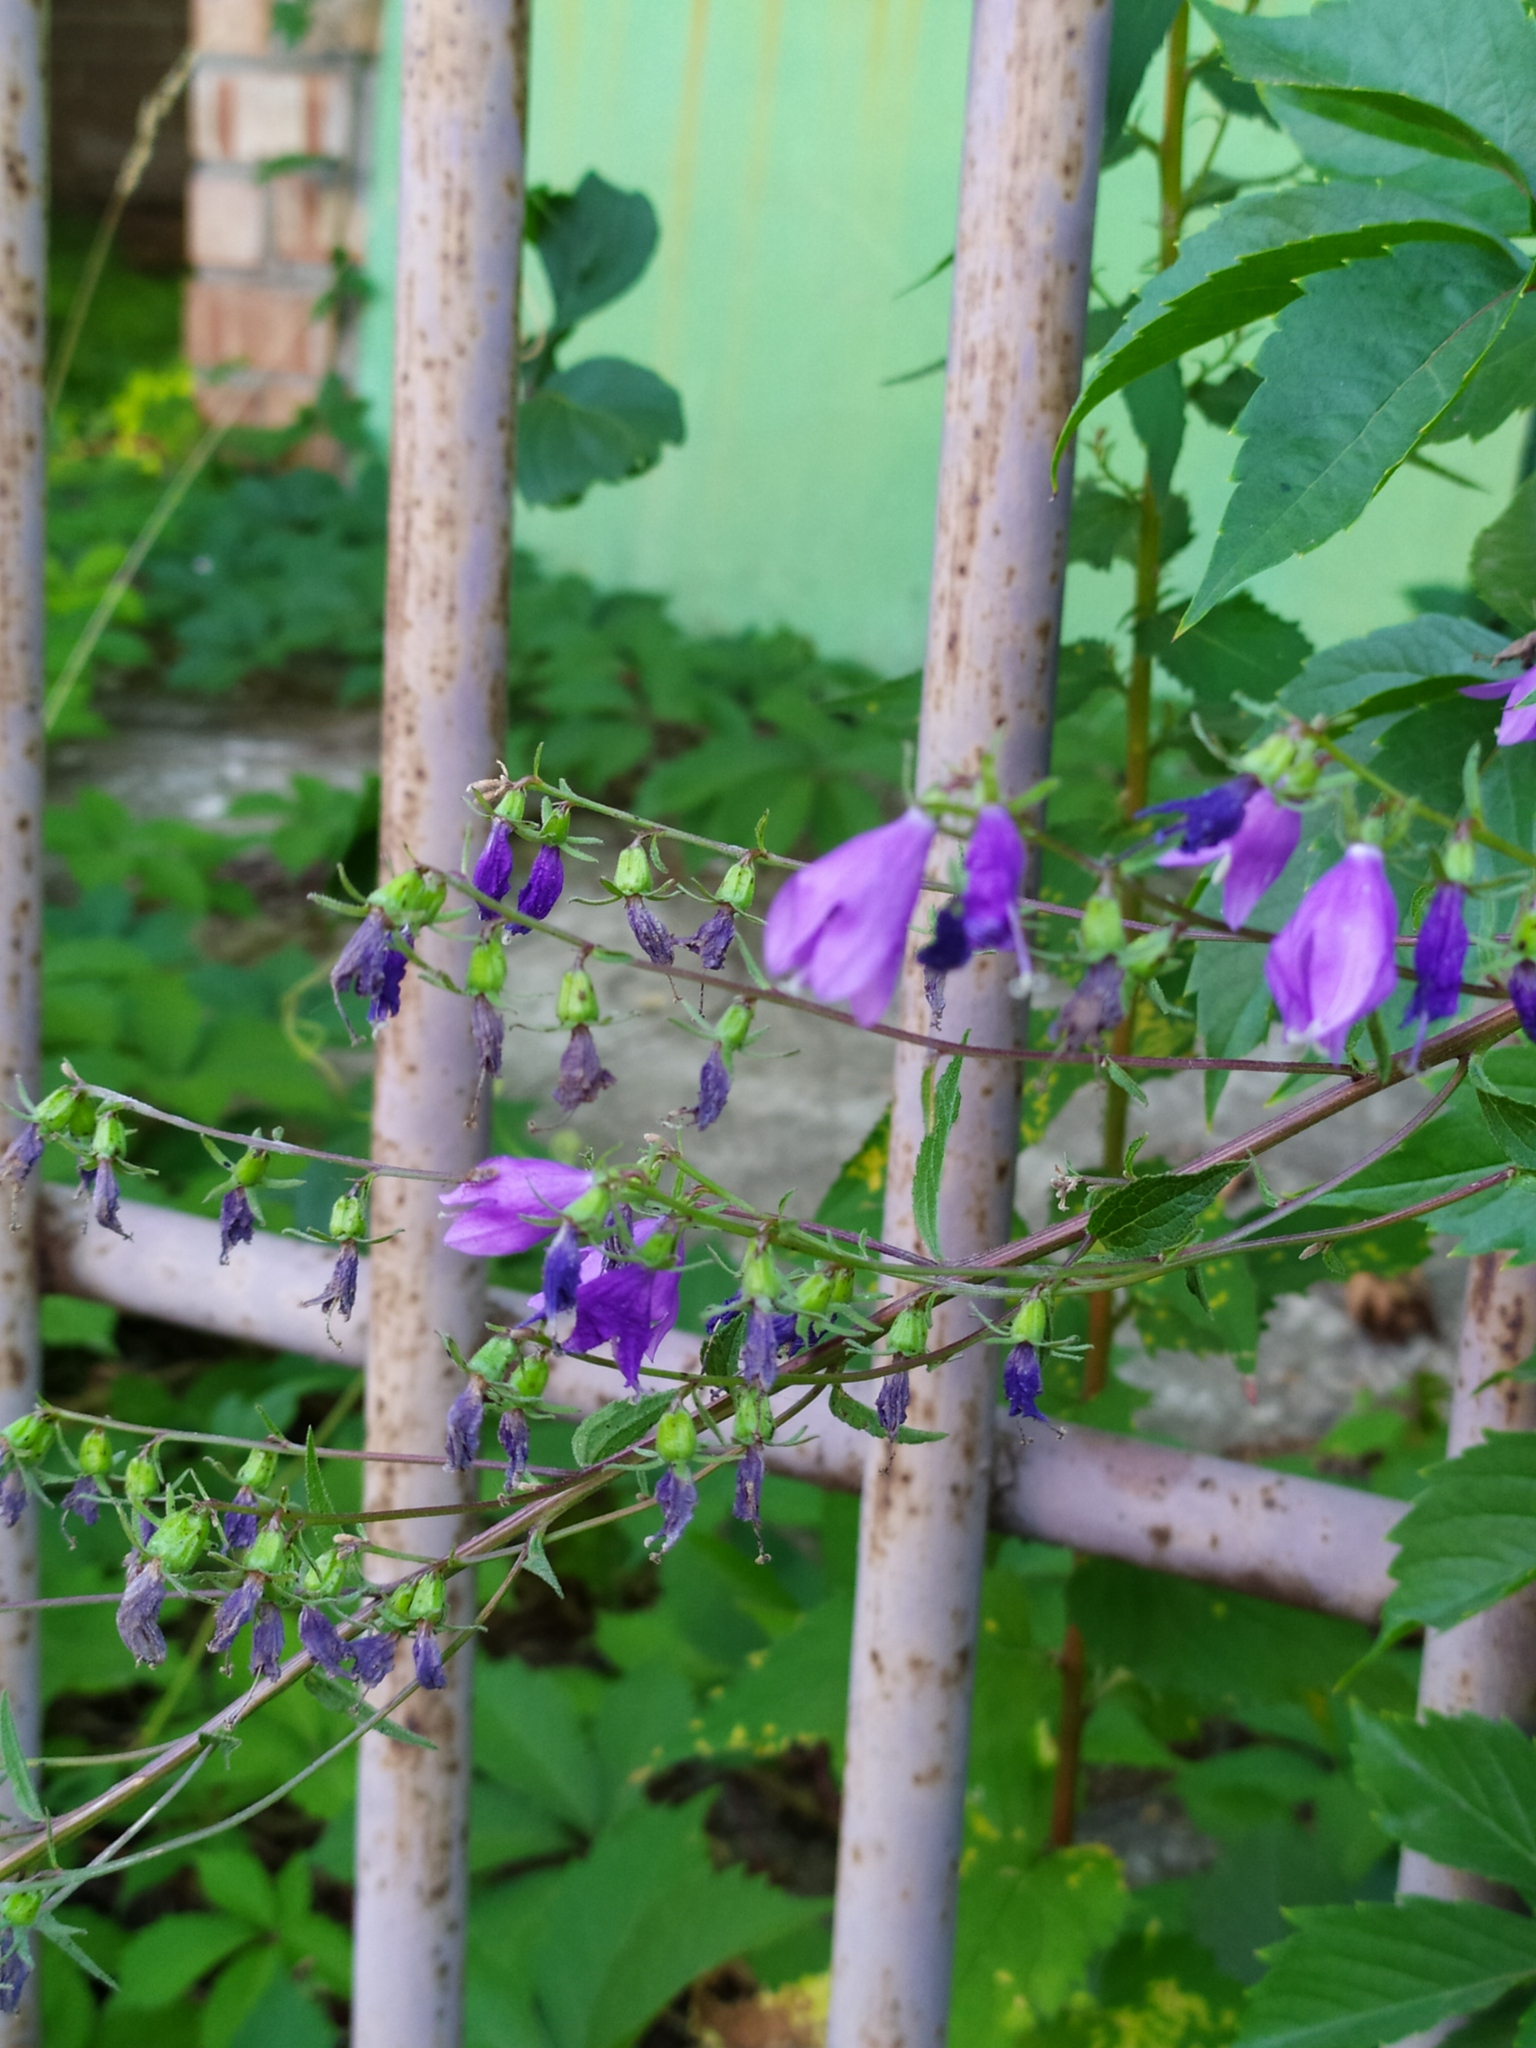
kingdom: Plantae
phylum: Tracheophyta
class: Magnoliopsida
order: Asterales
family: Campanulaceae
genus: Campanula
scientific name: Campanula rapunculoides
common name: Creeping bellflower
